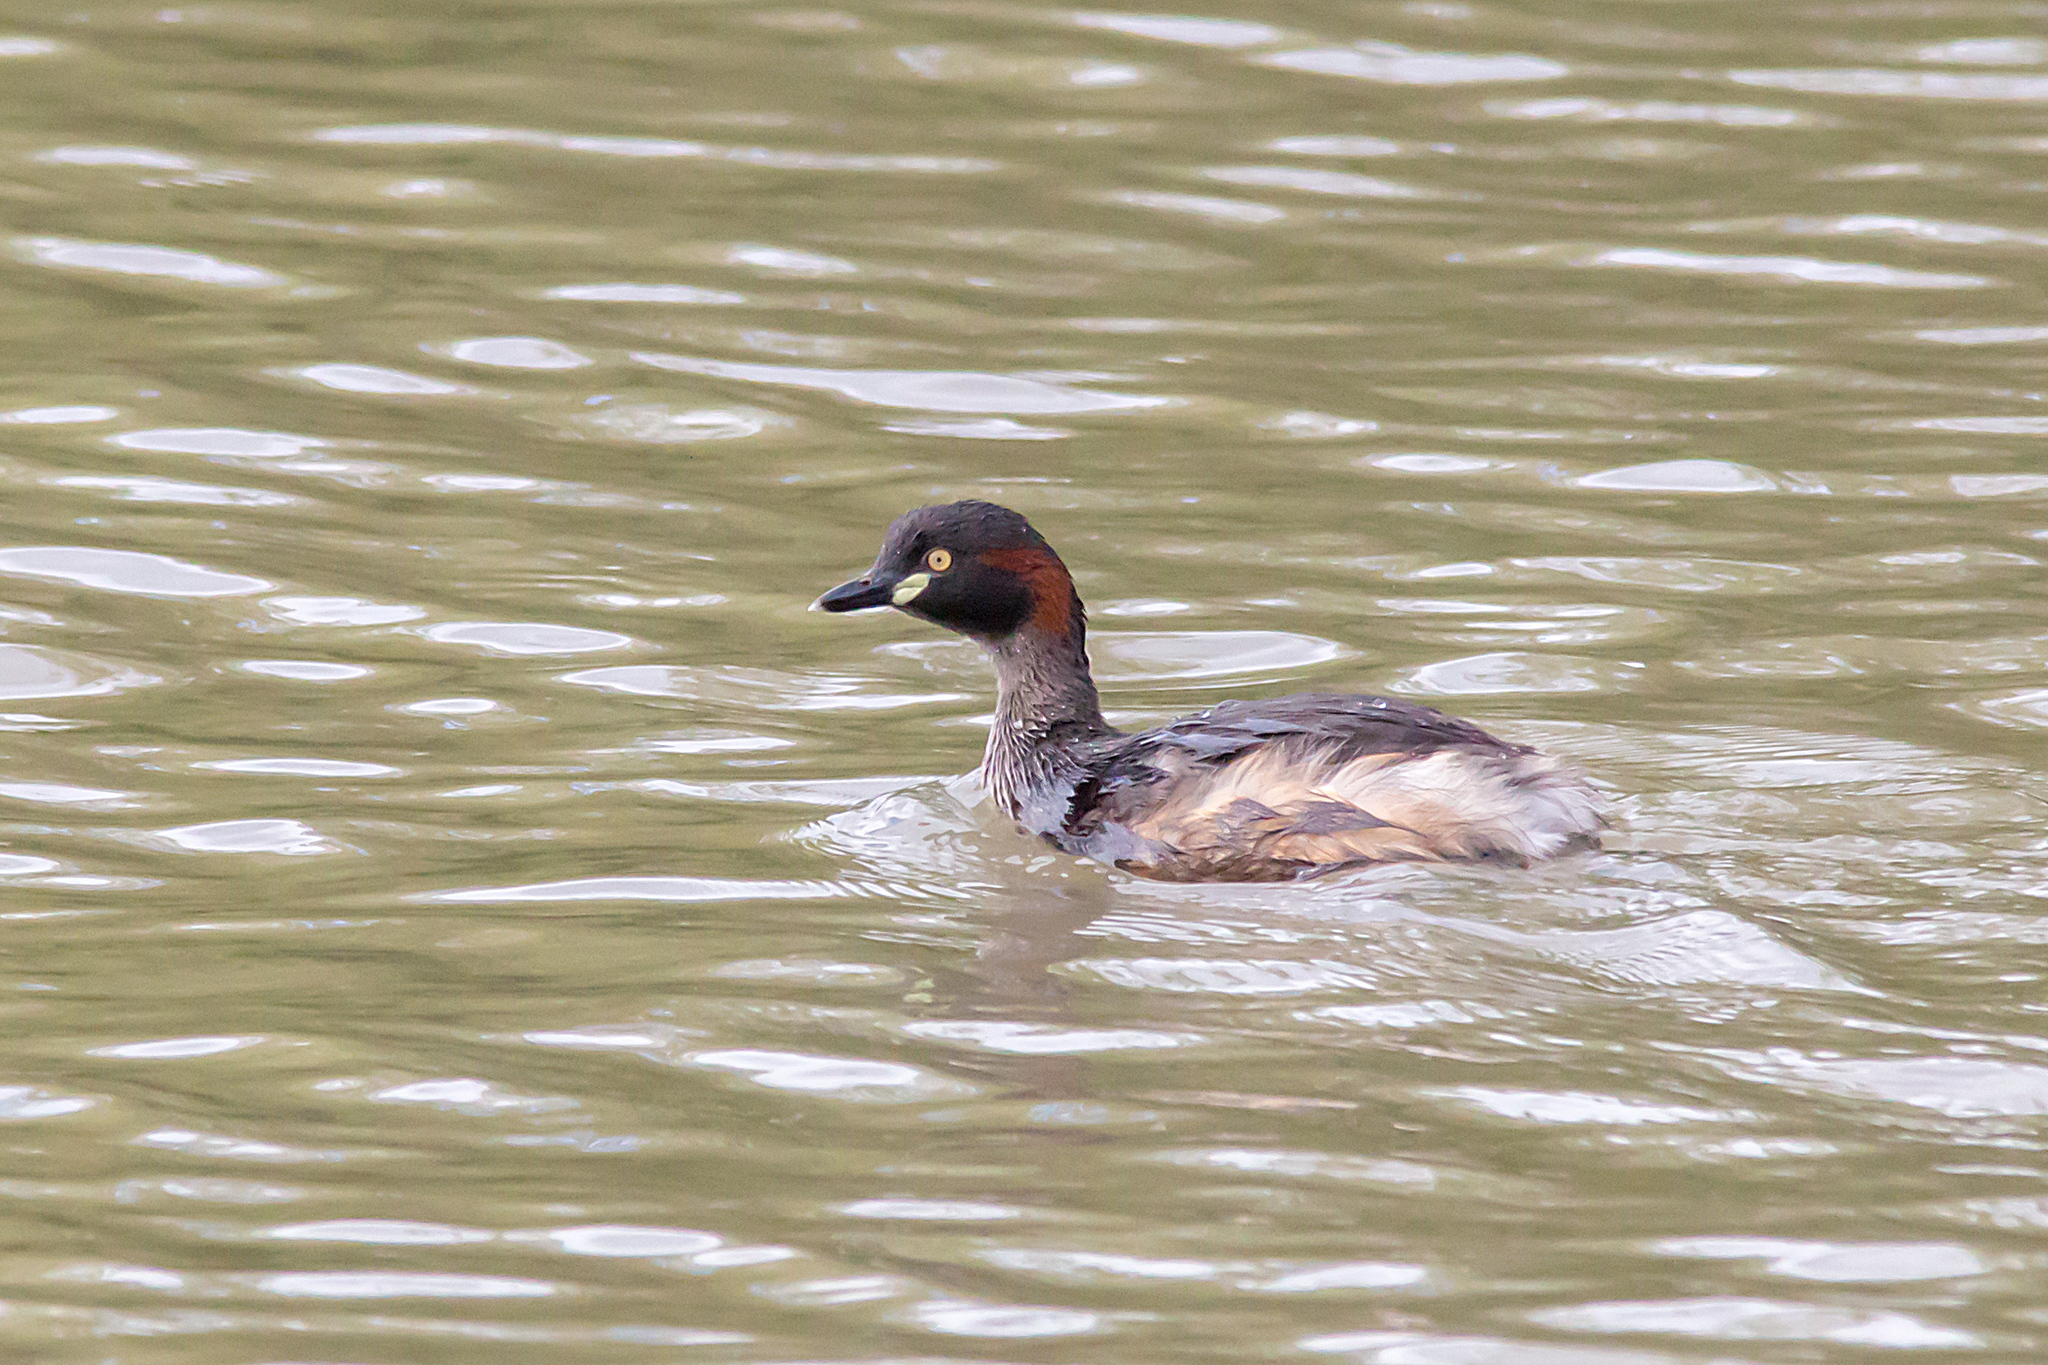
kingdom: Animalia
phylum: Chordata
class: Aves
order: Podicipediformes
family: Podicipedidae
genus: Tachybaptus
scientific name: Tachybaptus novaehollandiae
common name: Australasian grebe
